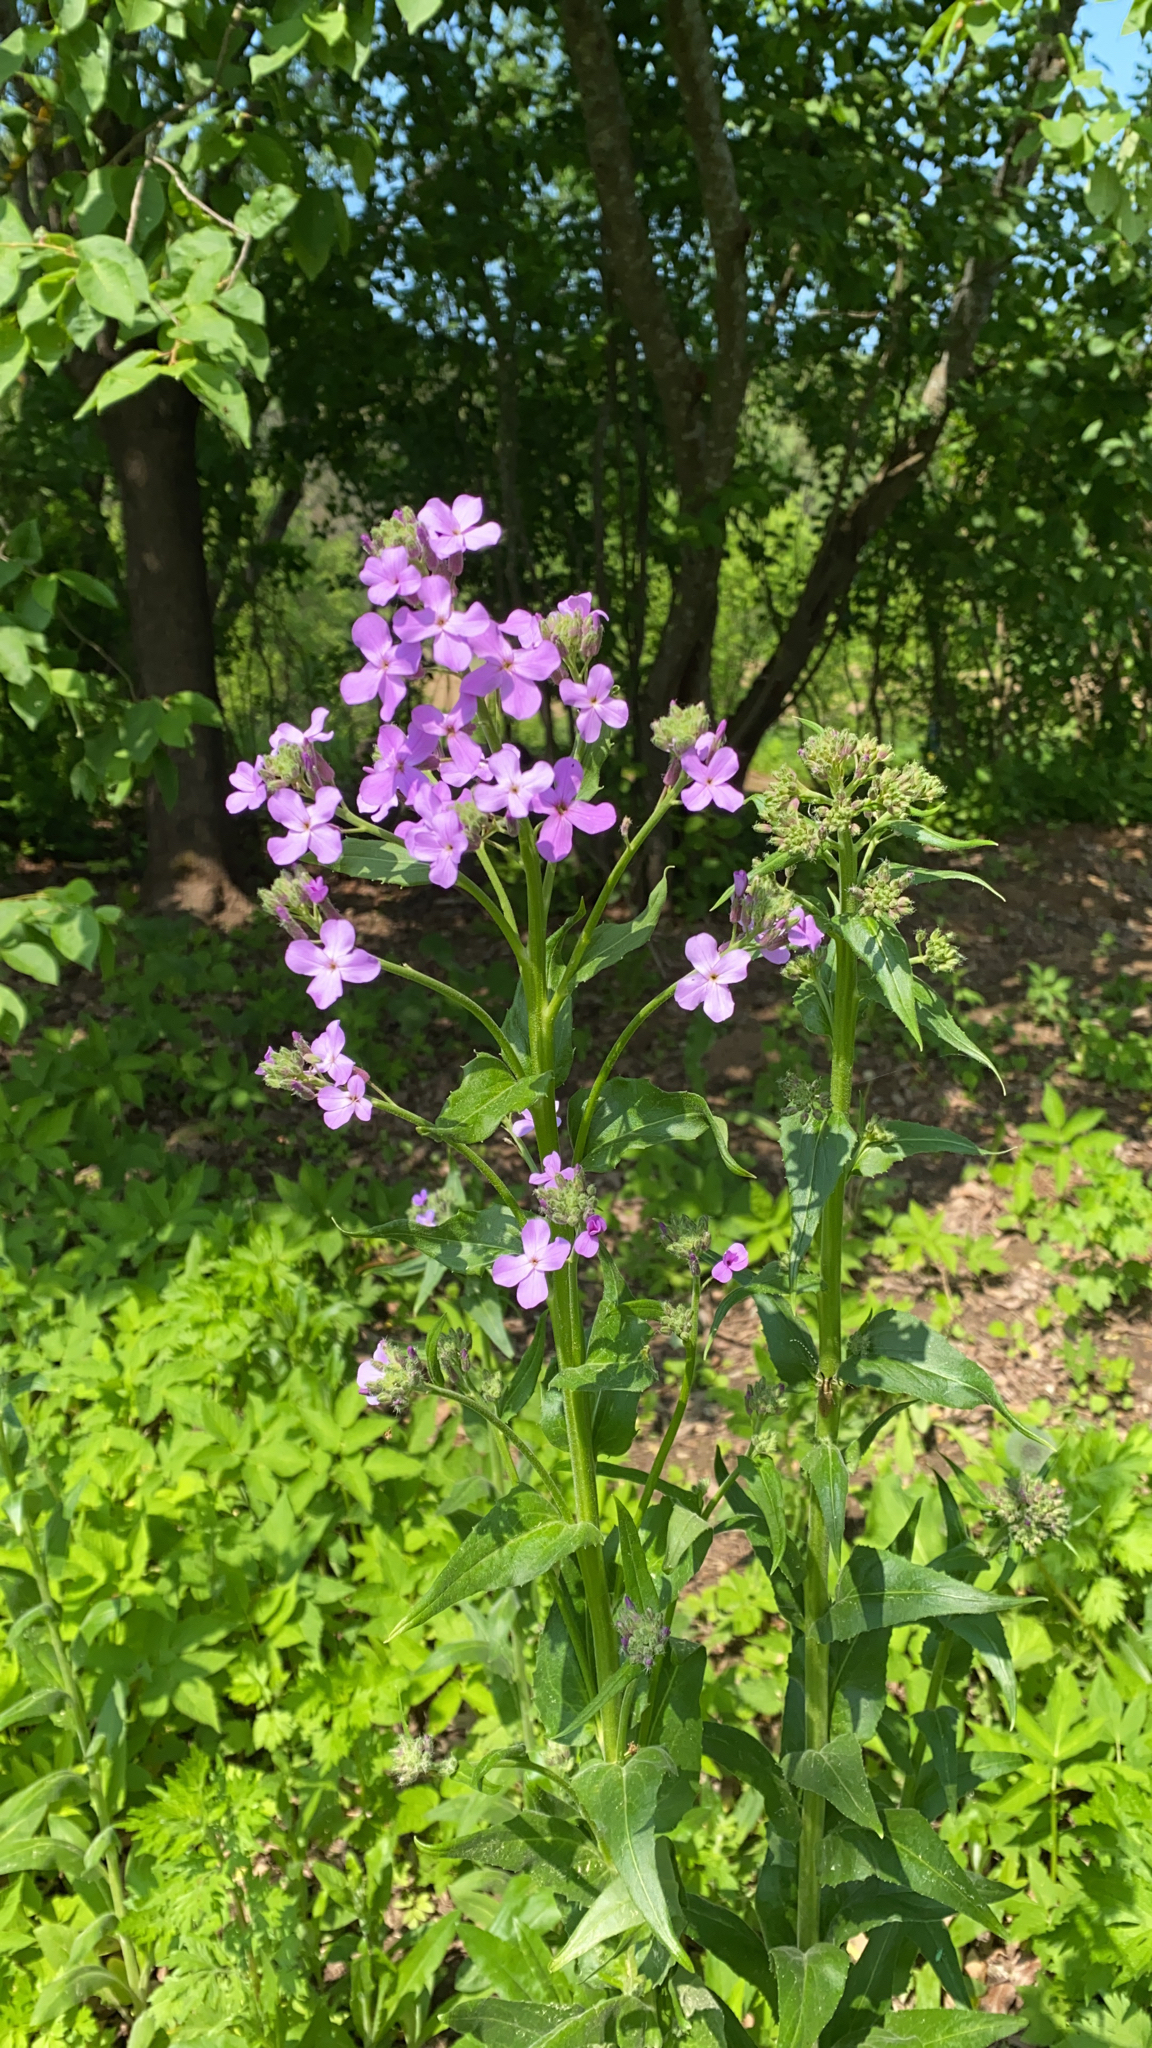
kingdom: Plantae
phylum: Tracheophyta
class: Magnoliopsida
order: Brassicales
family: Brassicaceae
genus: Hesperis
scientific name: Hesperis matronalis
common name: Dame's-violet
